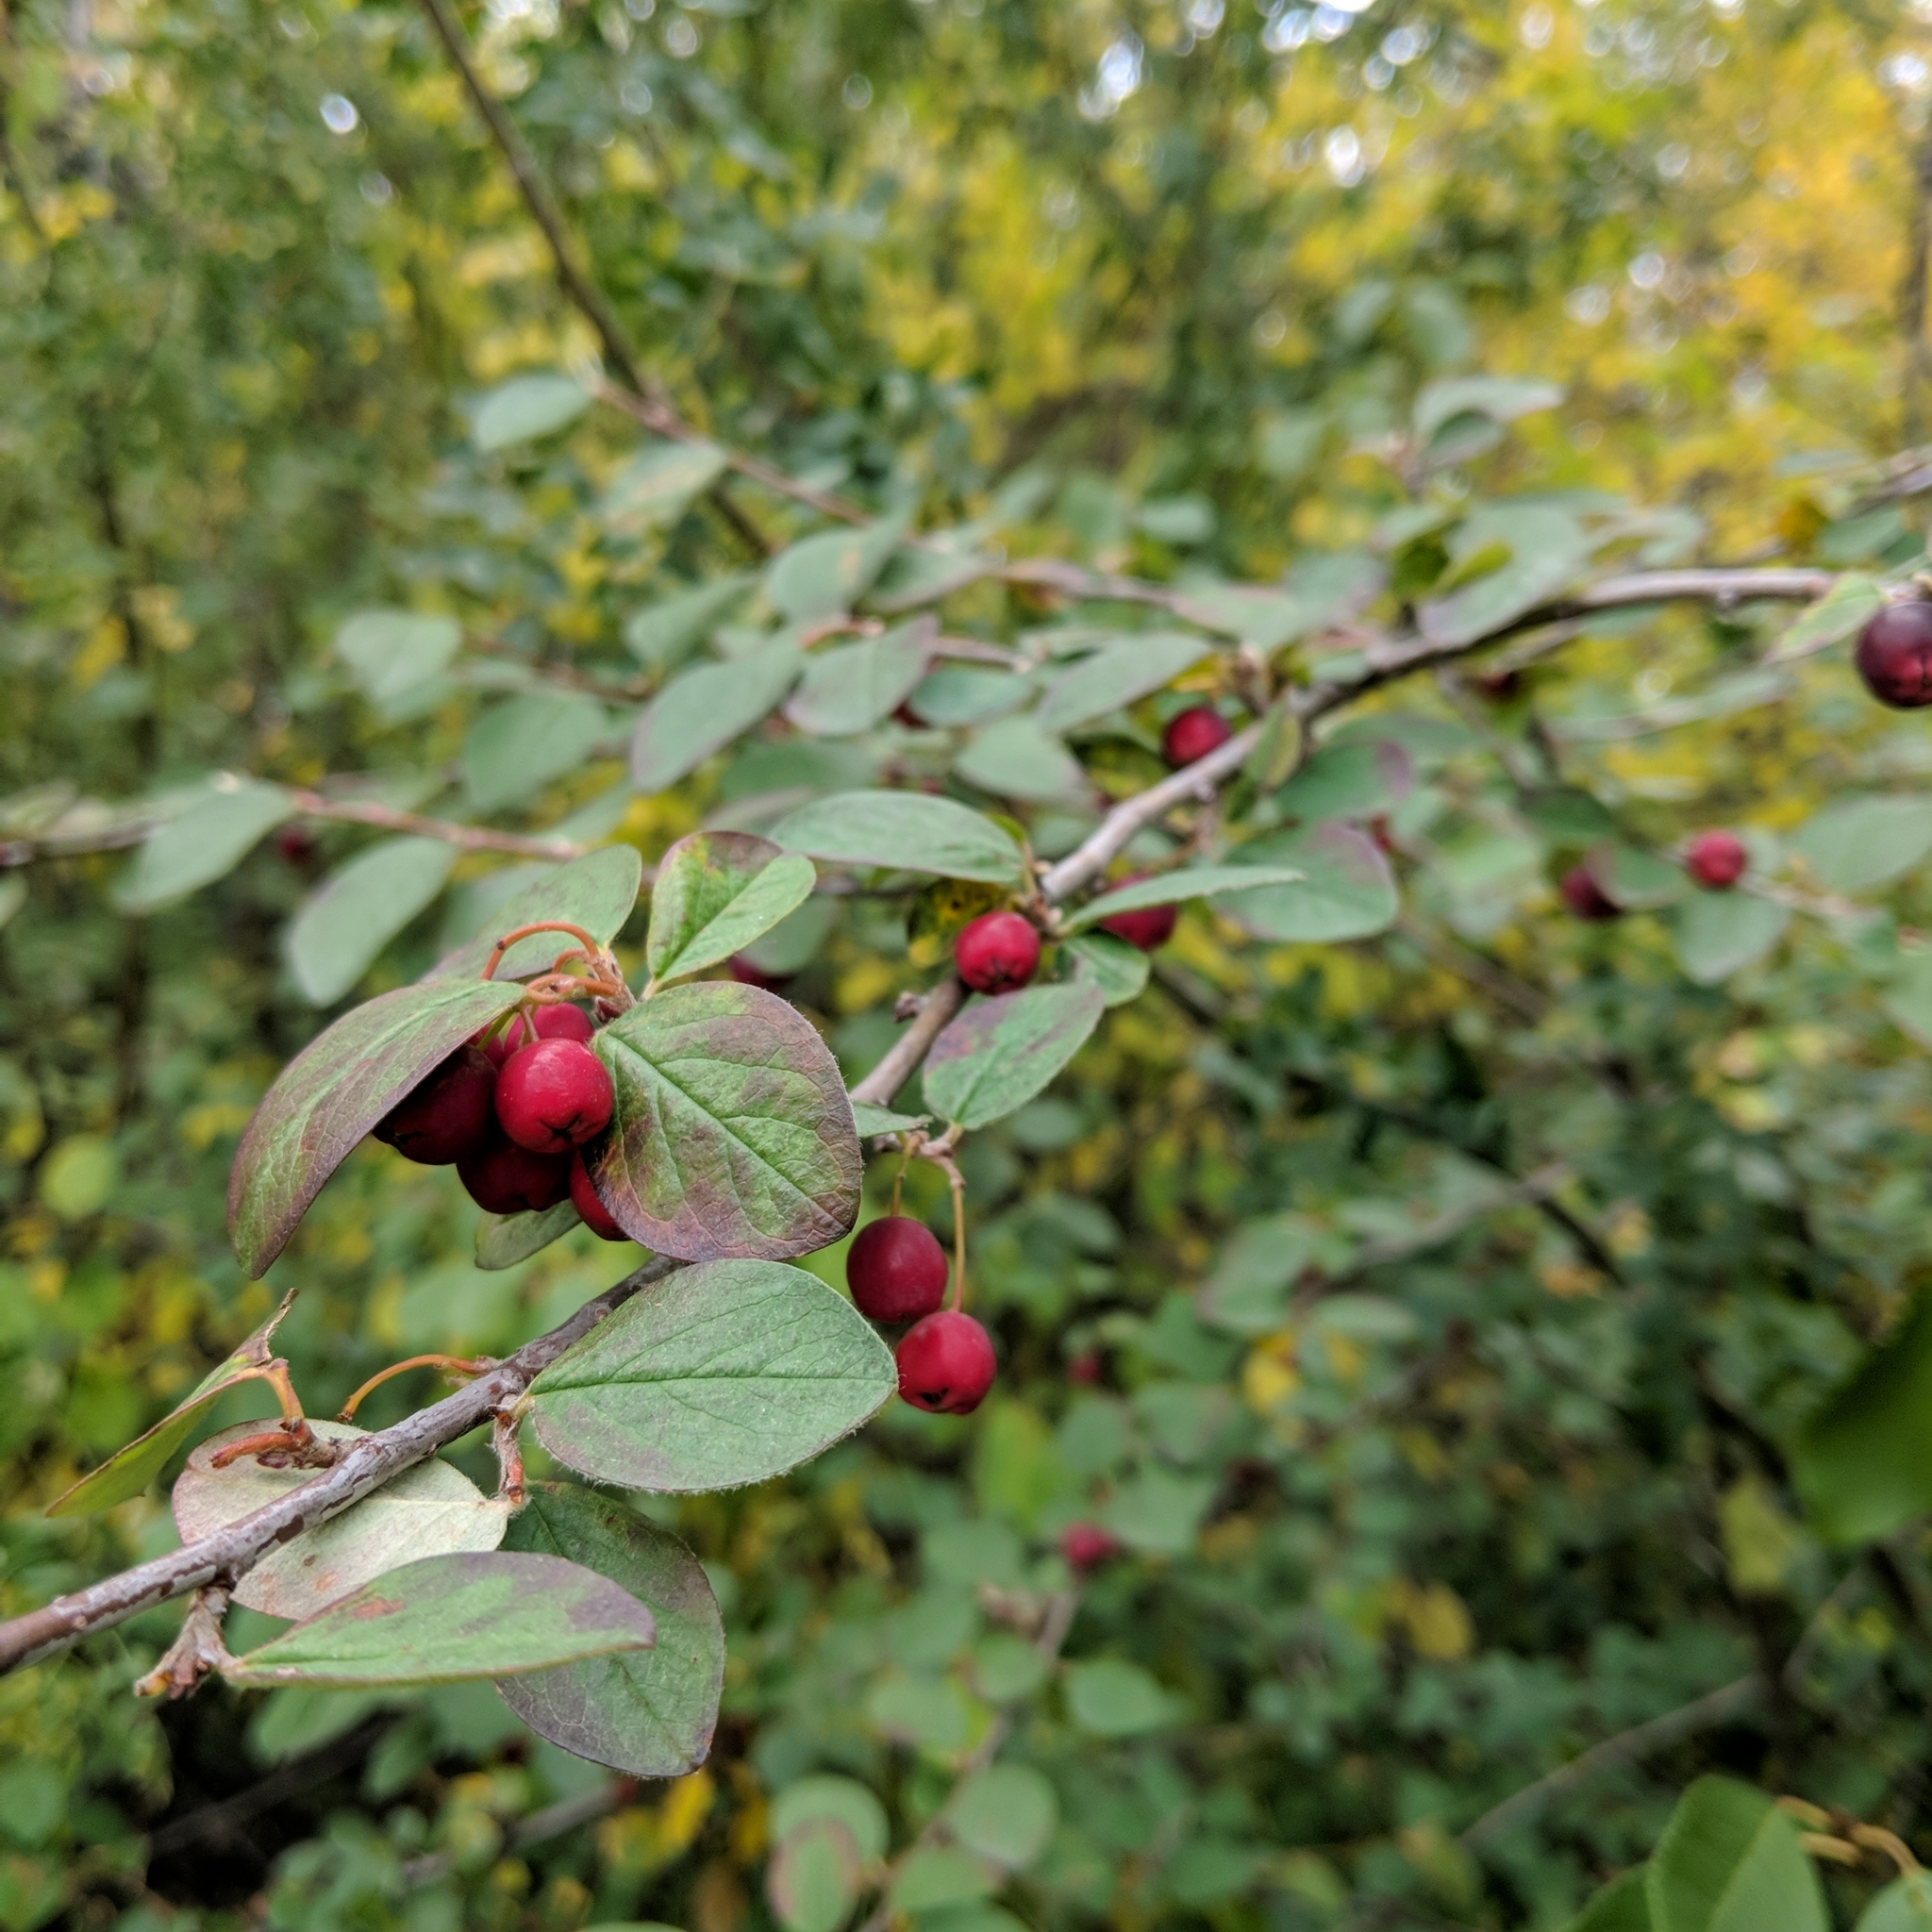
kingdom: Plantae
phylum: Tracheophyta
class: Magnoliopsida
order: Rosales
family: Rosaceae
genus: Cotoneaster
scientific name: Cotoneaster acutifolius
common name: Peking cotoneaster
